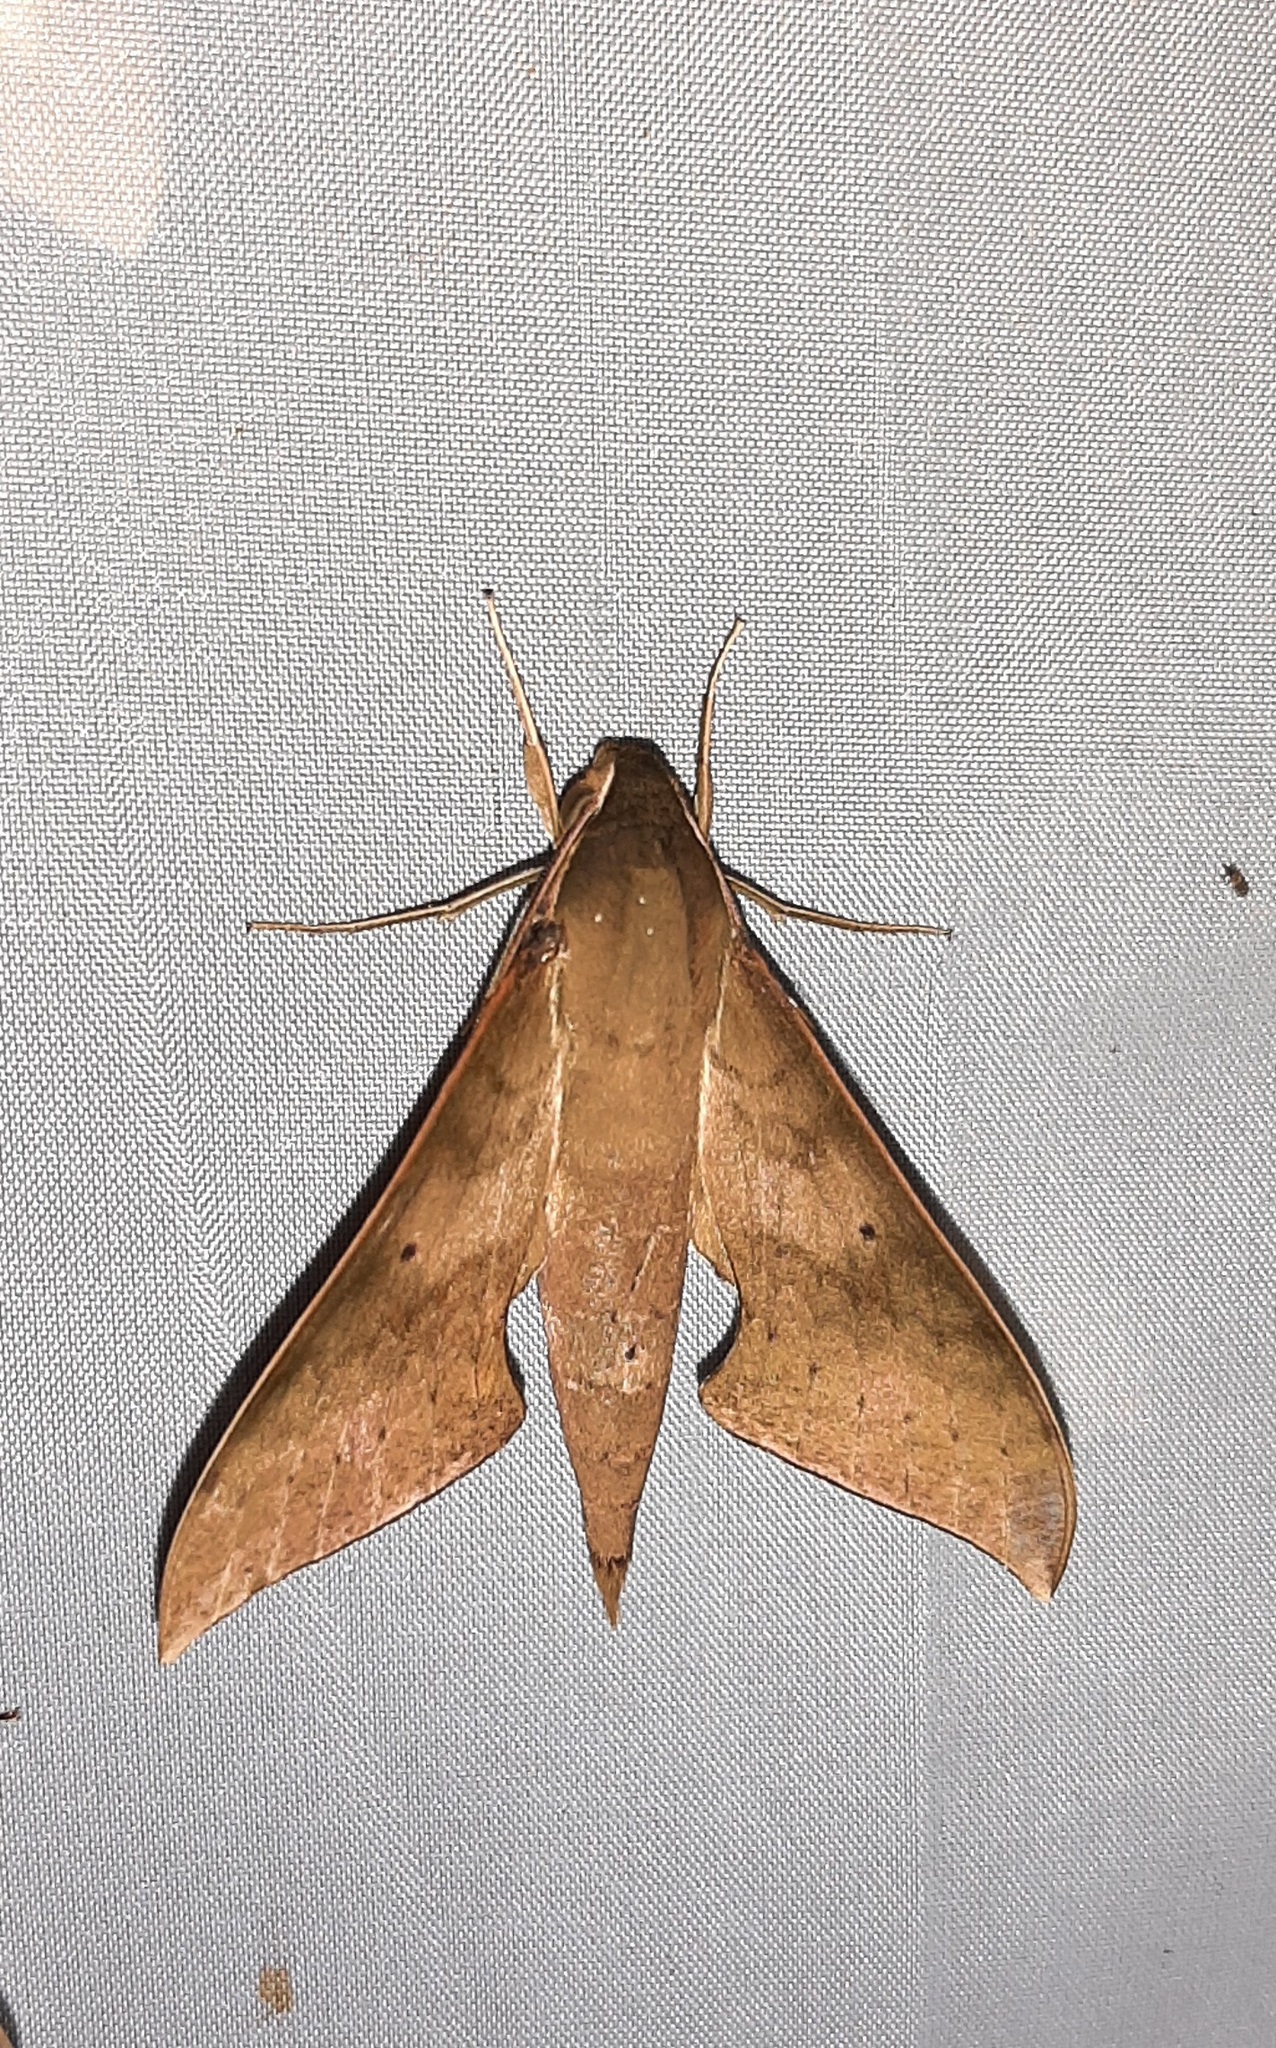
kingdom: Animalia
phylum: Arthropoda
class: Insecta
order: Lepidoptera
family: Sphingidae
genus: Xylophanes
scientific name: Xylophanes hannemanni
